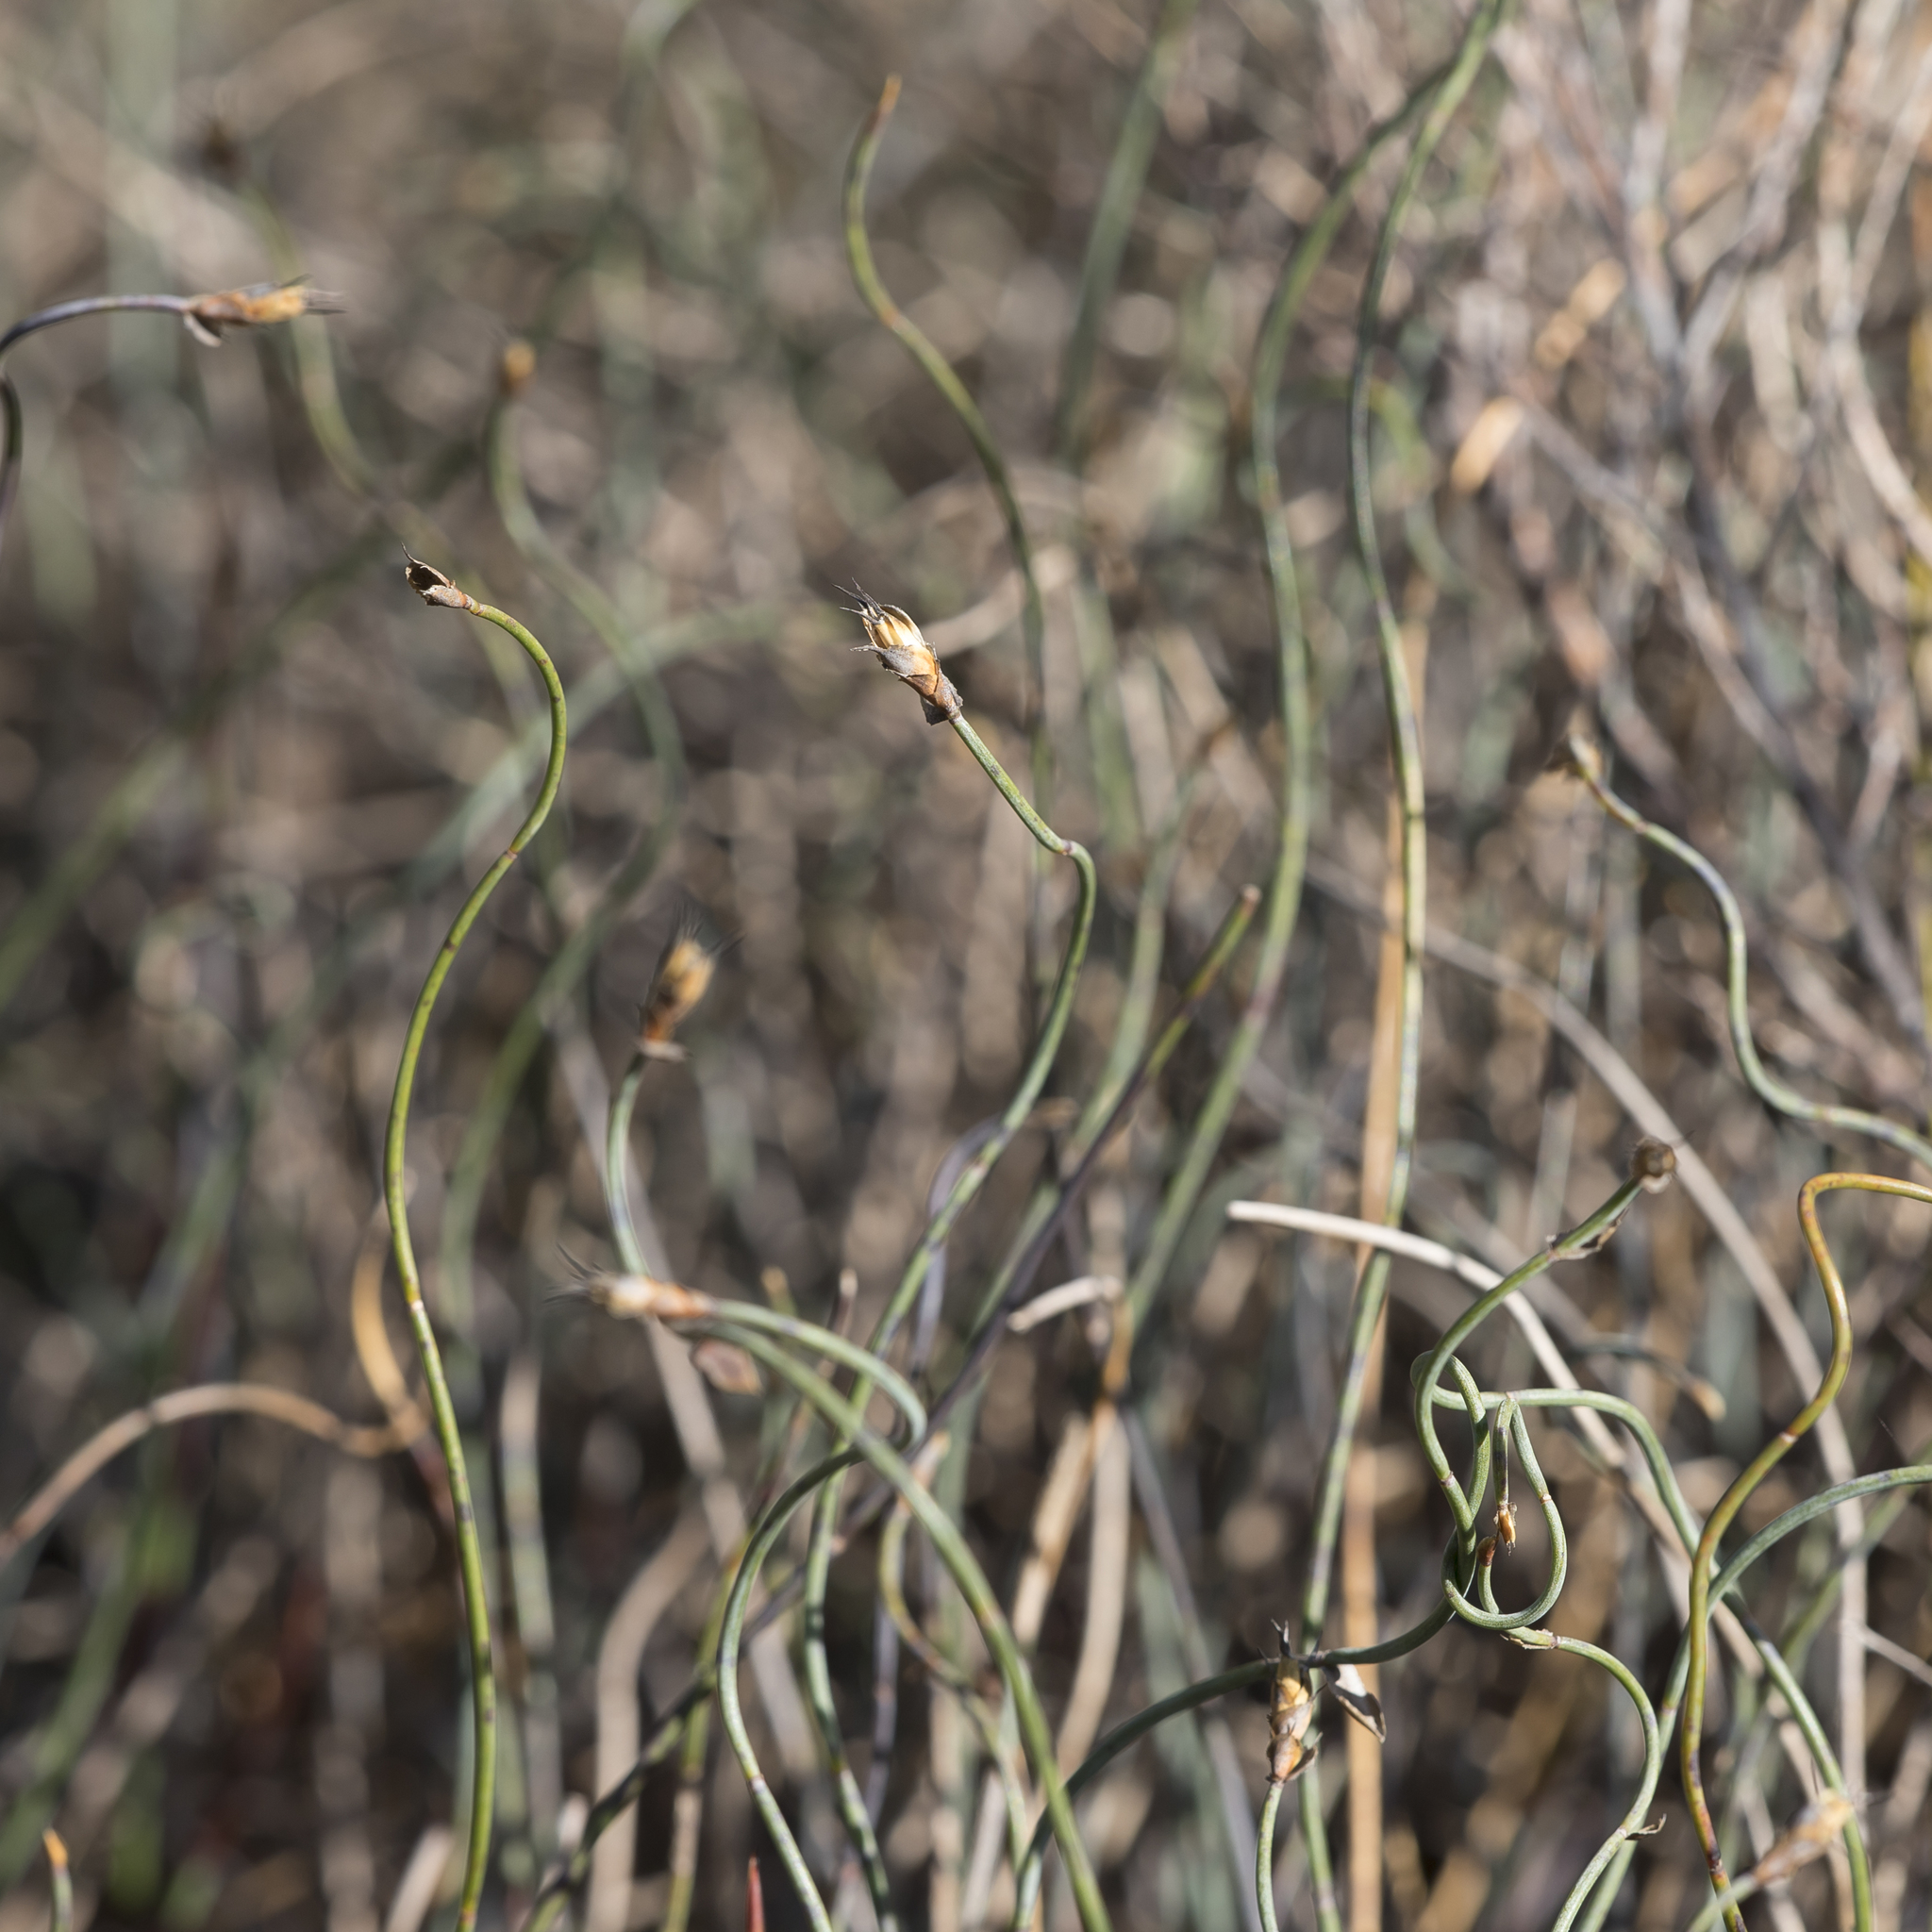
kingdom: Plantae
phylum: Tracheophyta
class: Liliopsida
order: Poales
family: Restionaceae
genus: Lepidobolus
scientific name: Lepidobolus drapetocoleus
